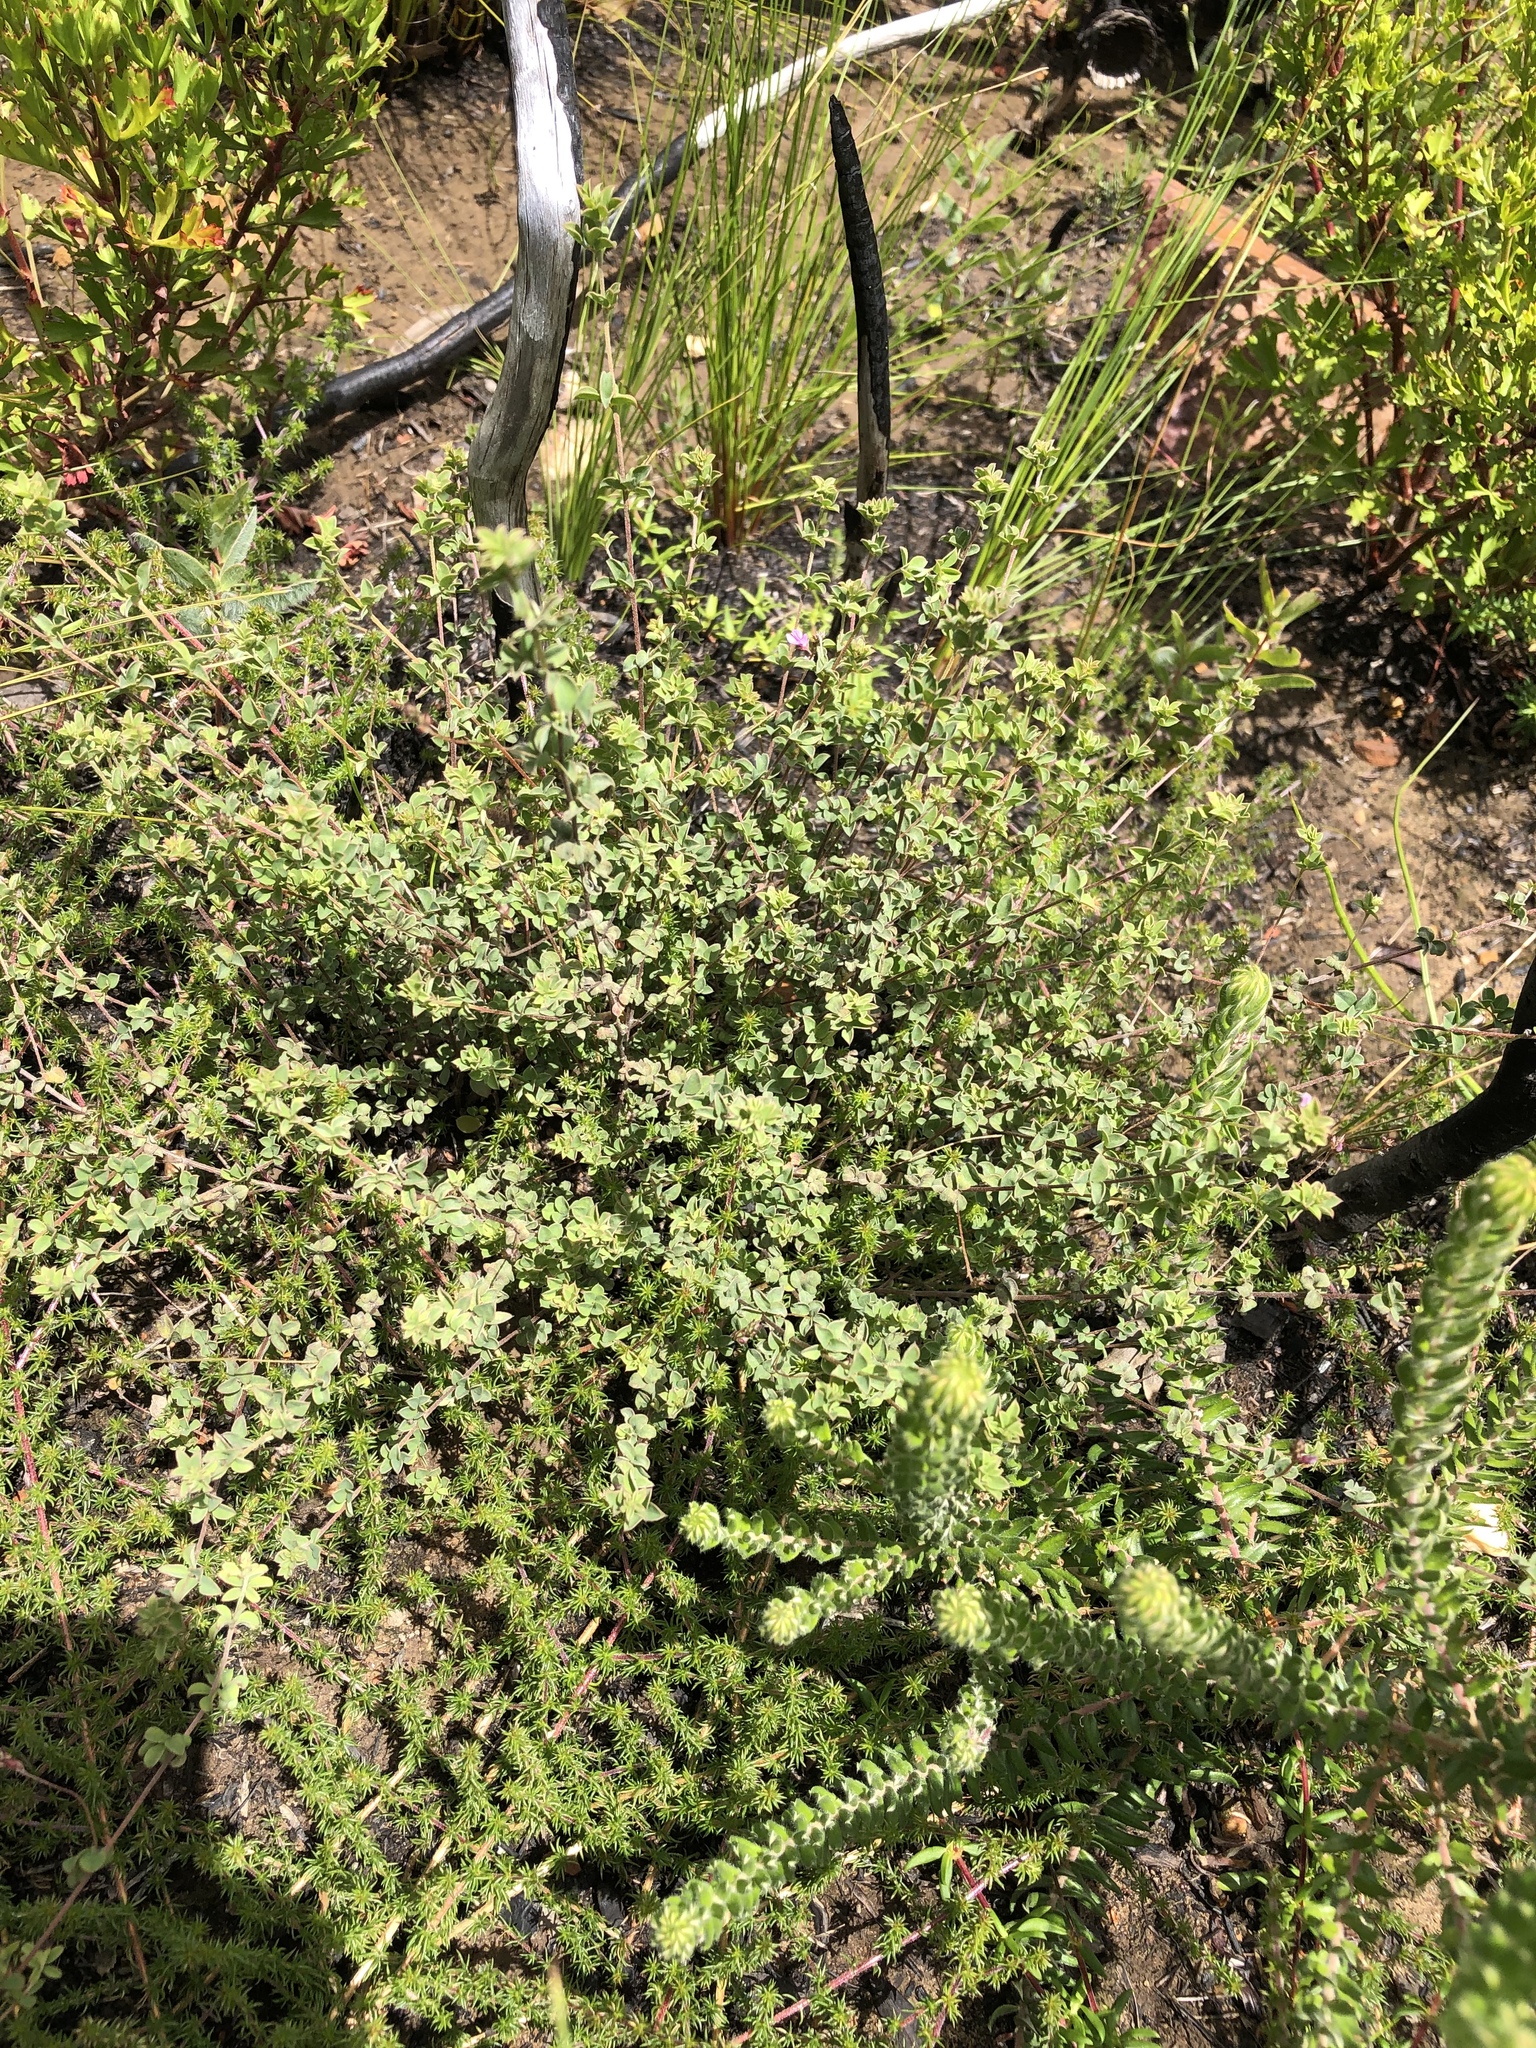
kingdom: Plantae
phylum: Tracheophyta
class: Magnoliopsida
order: Fabales
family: Fabaceae
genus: Indigofera
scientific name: Indigofera alopecuroides
